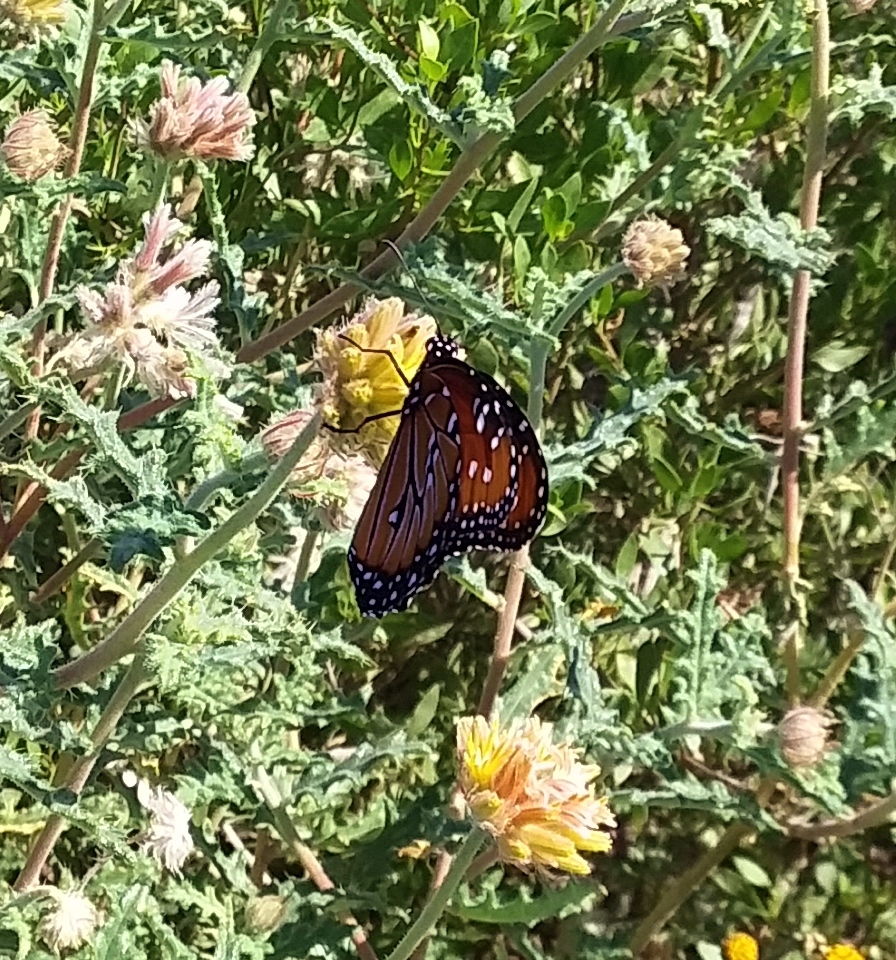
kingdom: Animalia
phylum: Arthropoda
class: Insecta
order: Lepidoptera
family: Nymphalidae
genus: Danaus
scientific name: Danaus gilippus
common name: Queen
